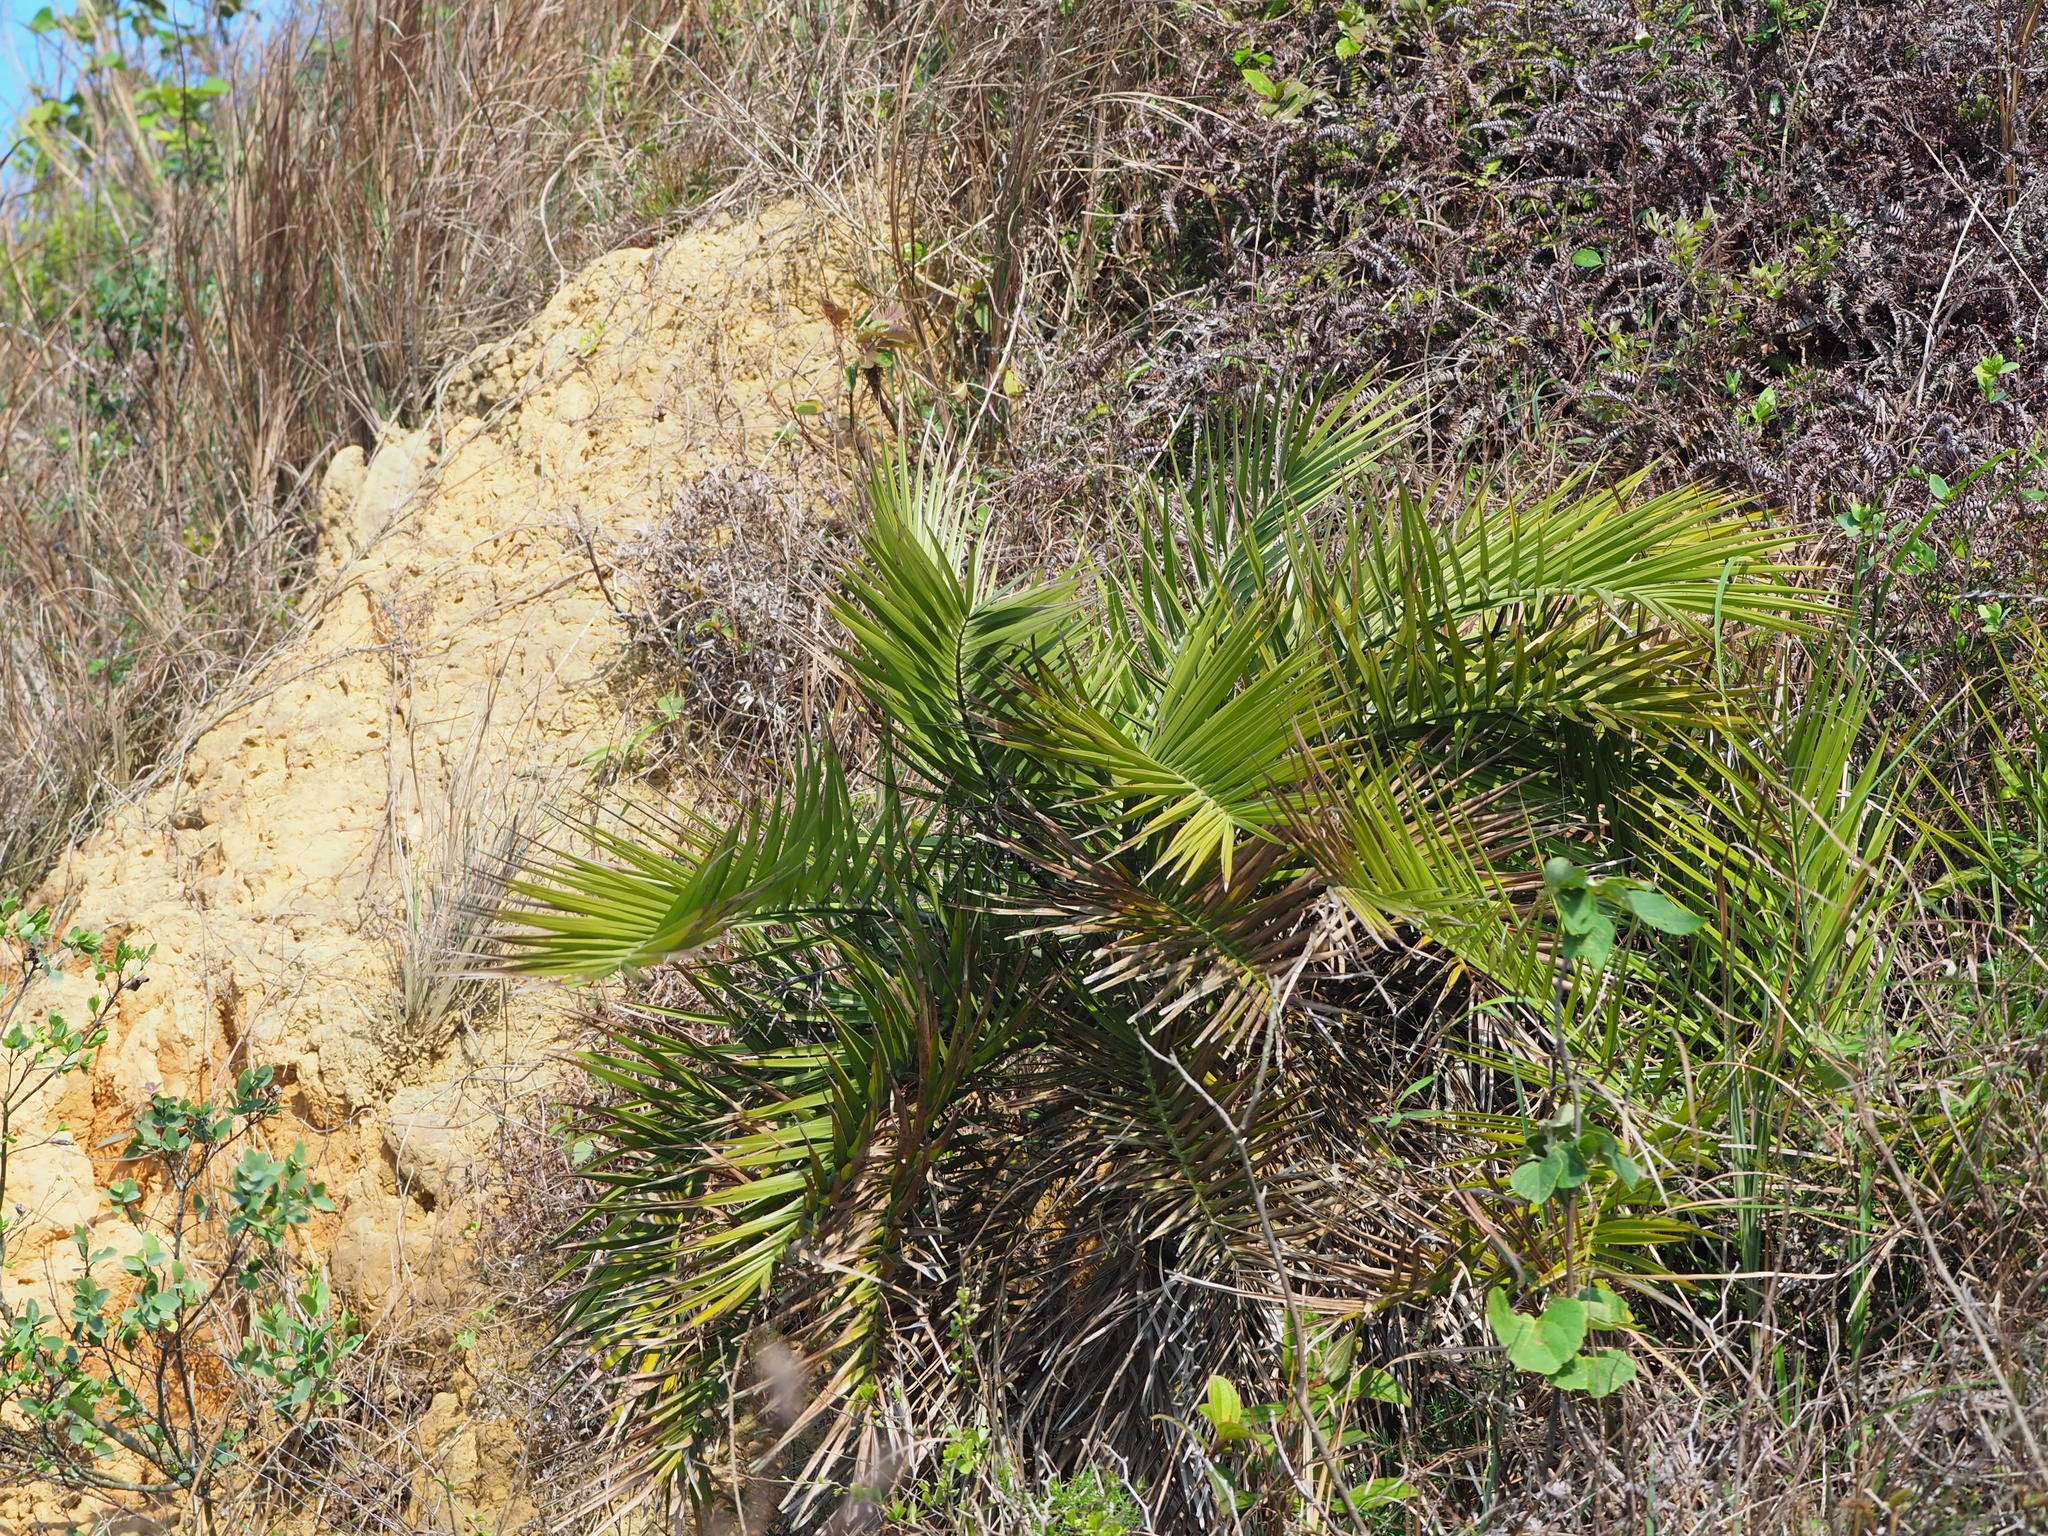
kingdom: Plantae
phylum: Tracheophyta
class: Liliopsida
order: Arecales
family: Arecaceae
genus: Phoenix
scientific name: Phoenix loureiroi
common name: Loureiro's palm
